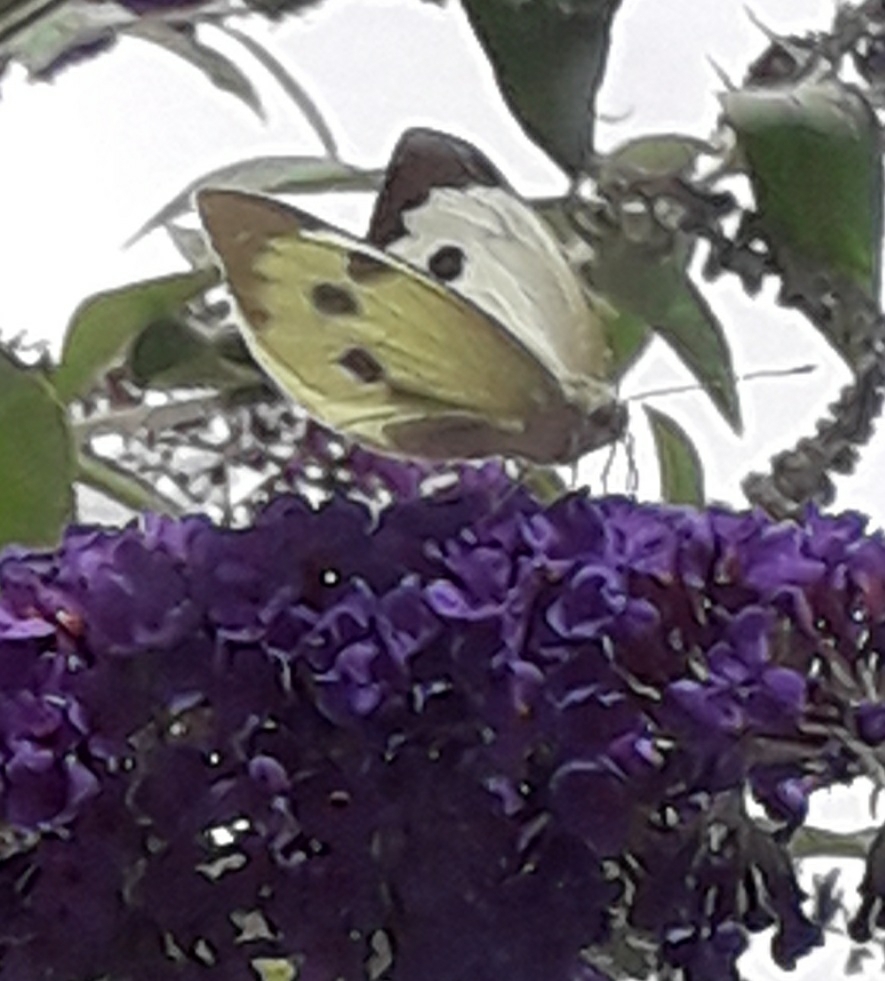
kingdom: Animalia
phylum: Arthropoda
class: Insecta
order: Lepidoptera
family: Pieridae
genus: Pieris
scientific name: Pieris brassicae
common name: Large white
